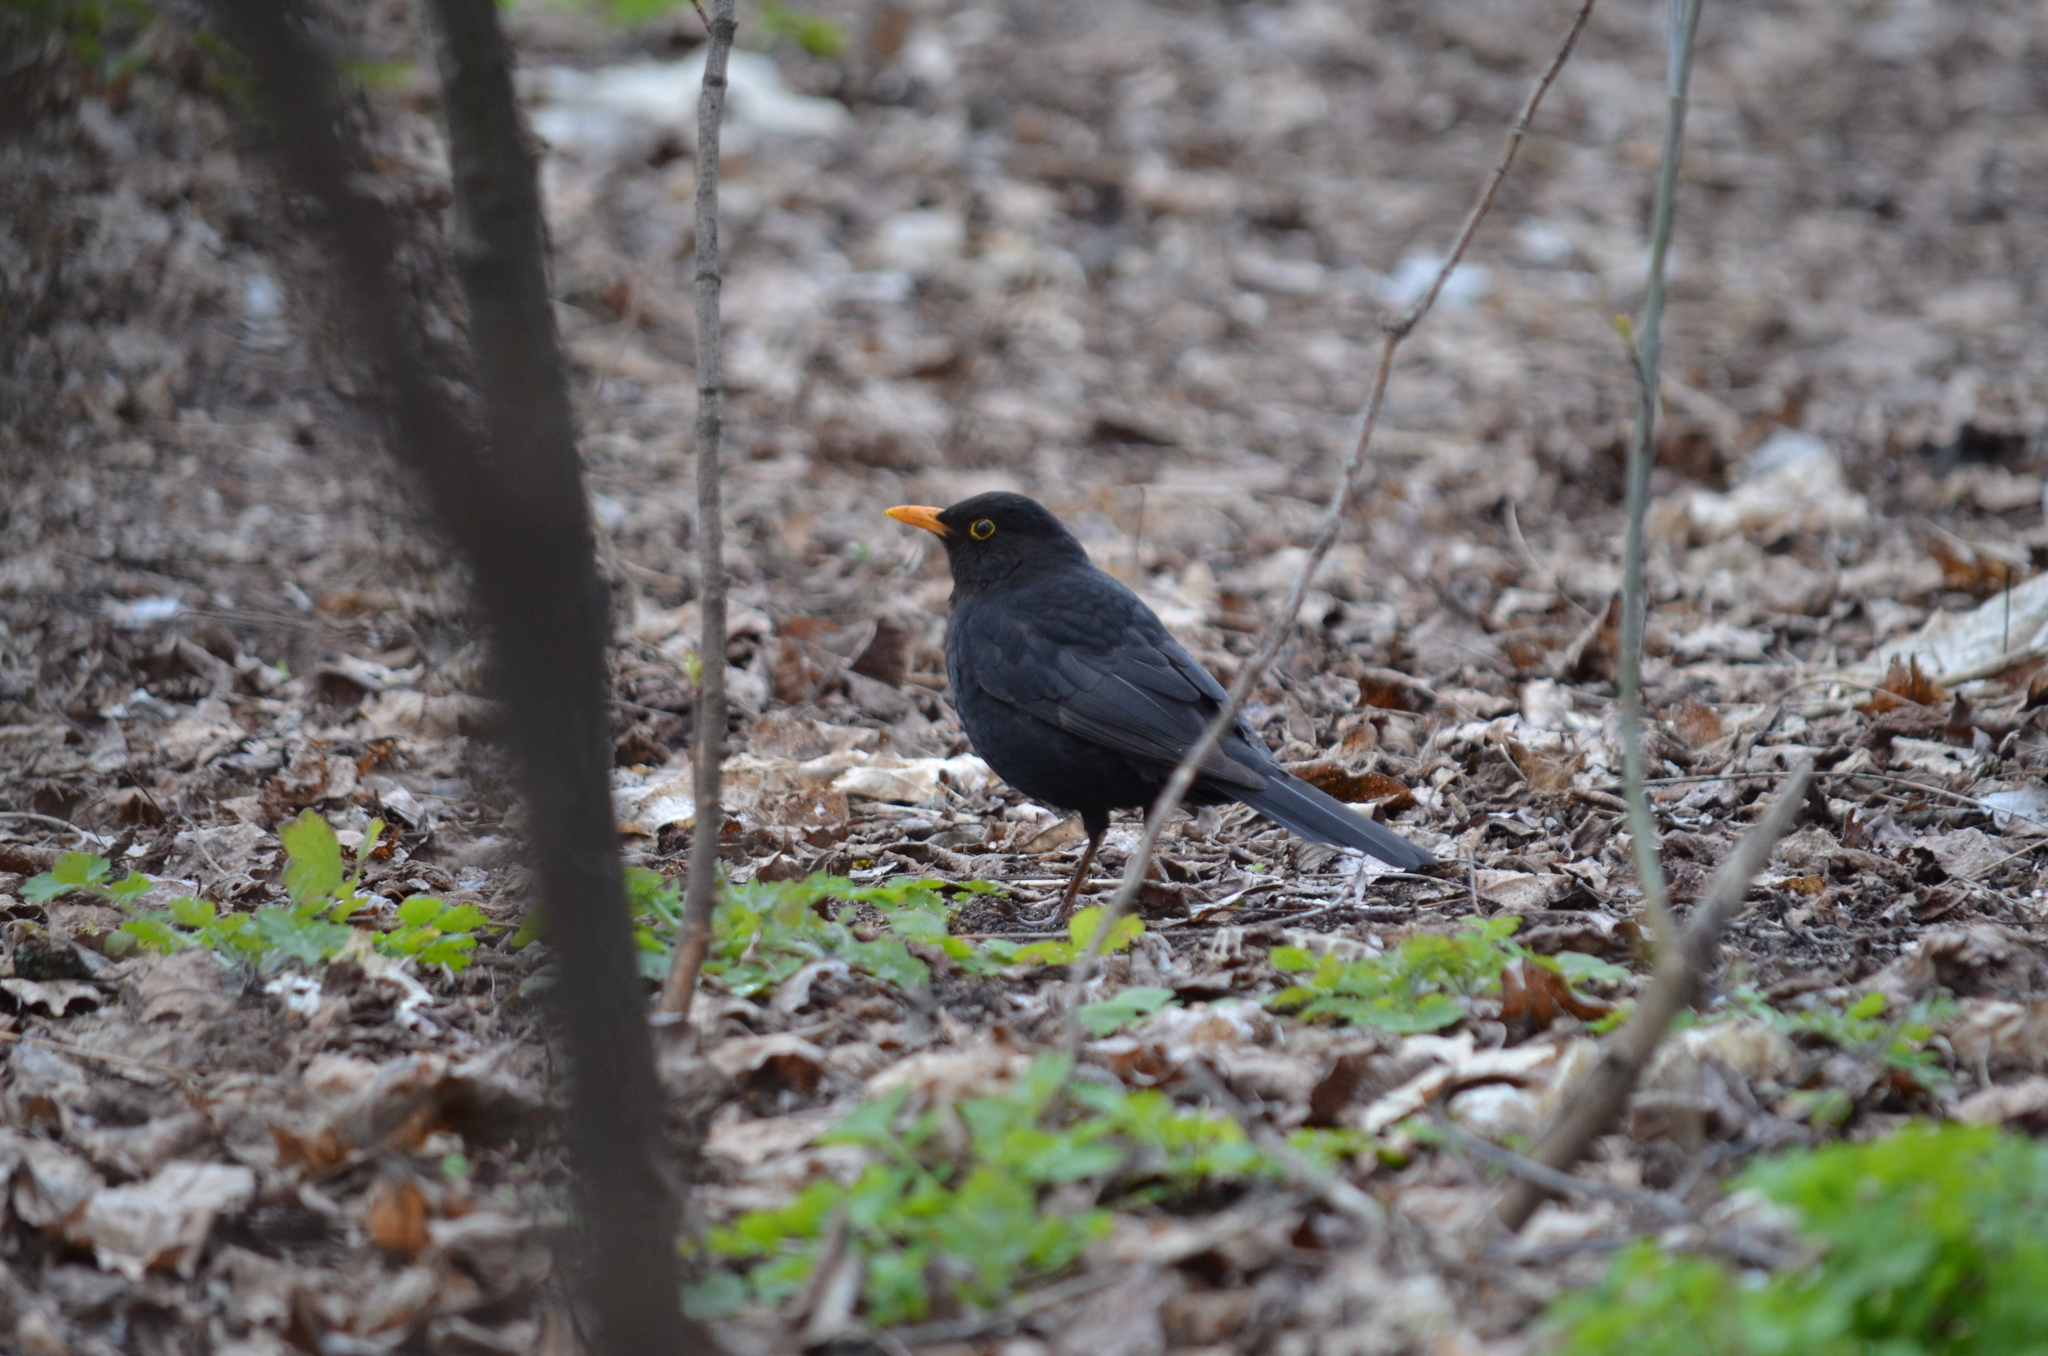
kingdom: Animalia
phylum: Chordata
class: Aves
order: Passeriformes
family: Turdidae
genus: Turdus
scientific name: Turdus merula
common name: Common blackbird
